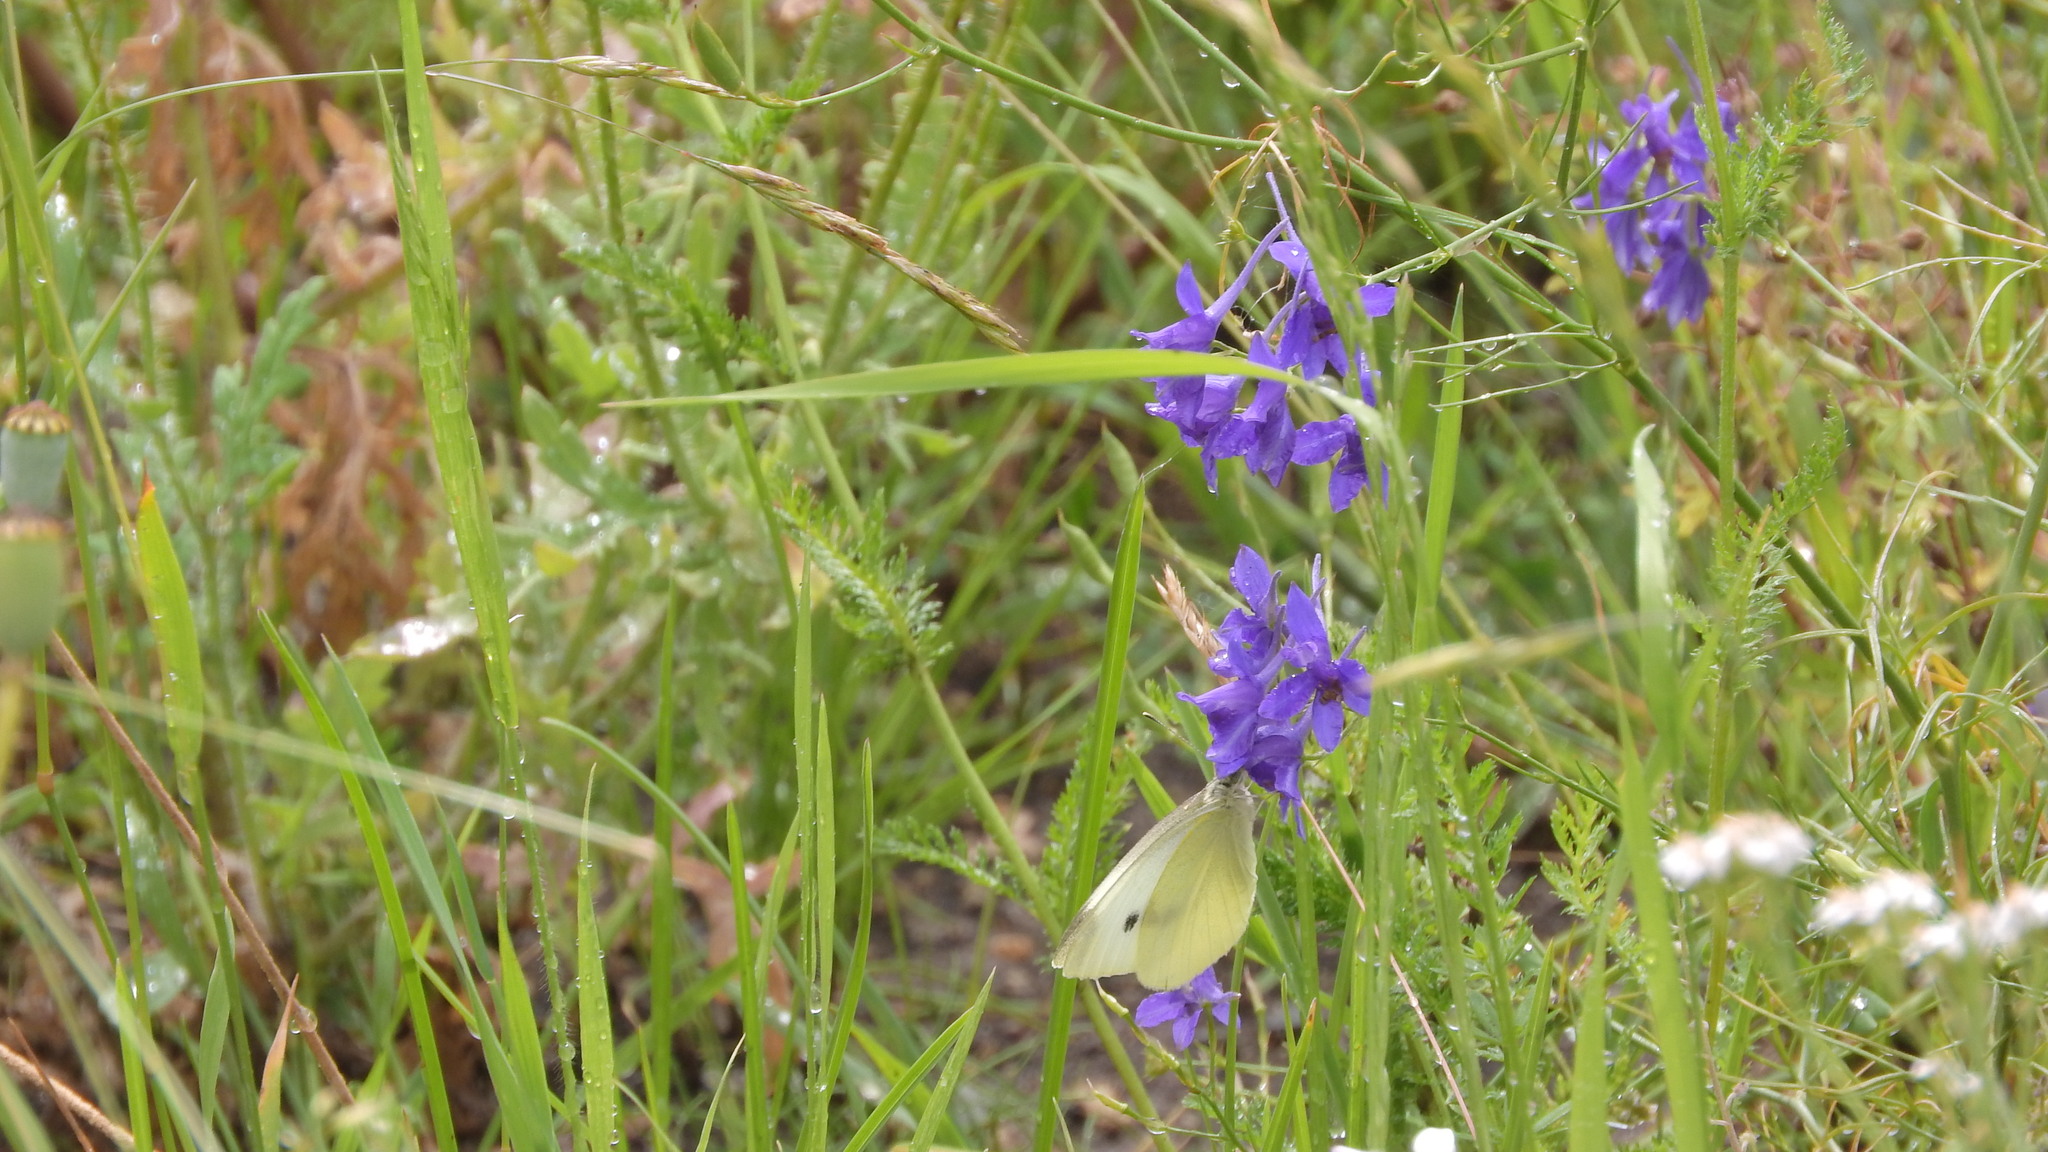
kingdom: Animalia
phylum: Arthropoda
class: Insecta
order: Lepidoptera
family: Pieridae
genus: Pieris
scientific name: Pieris rapae
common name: Small white
